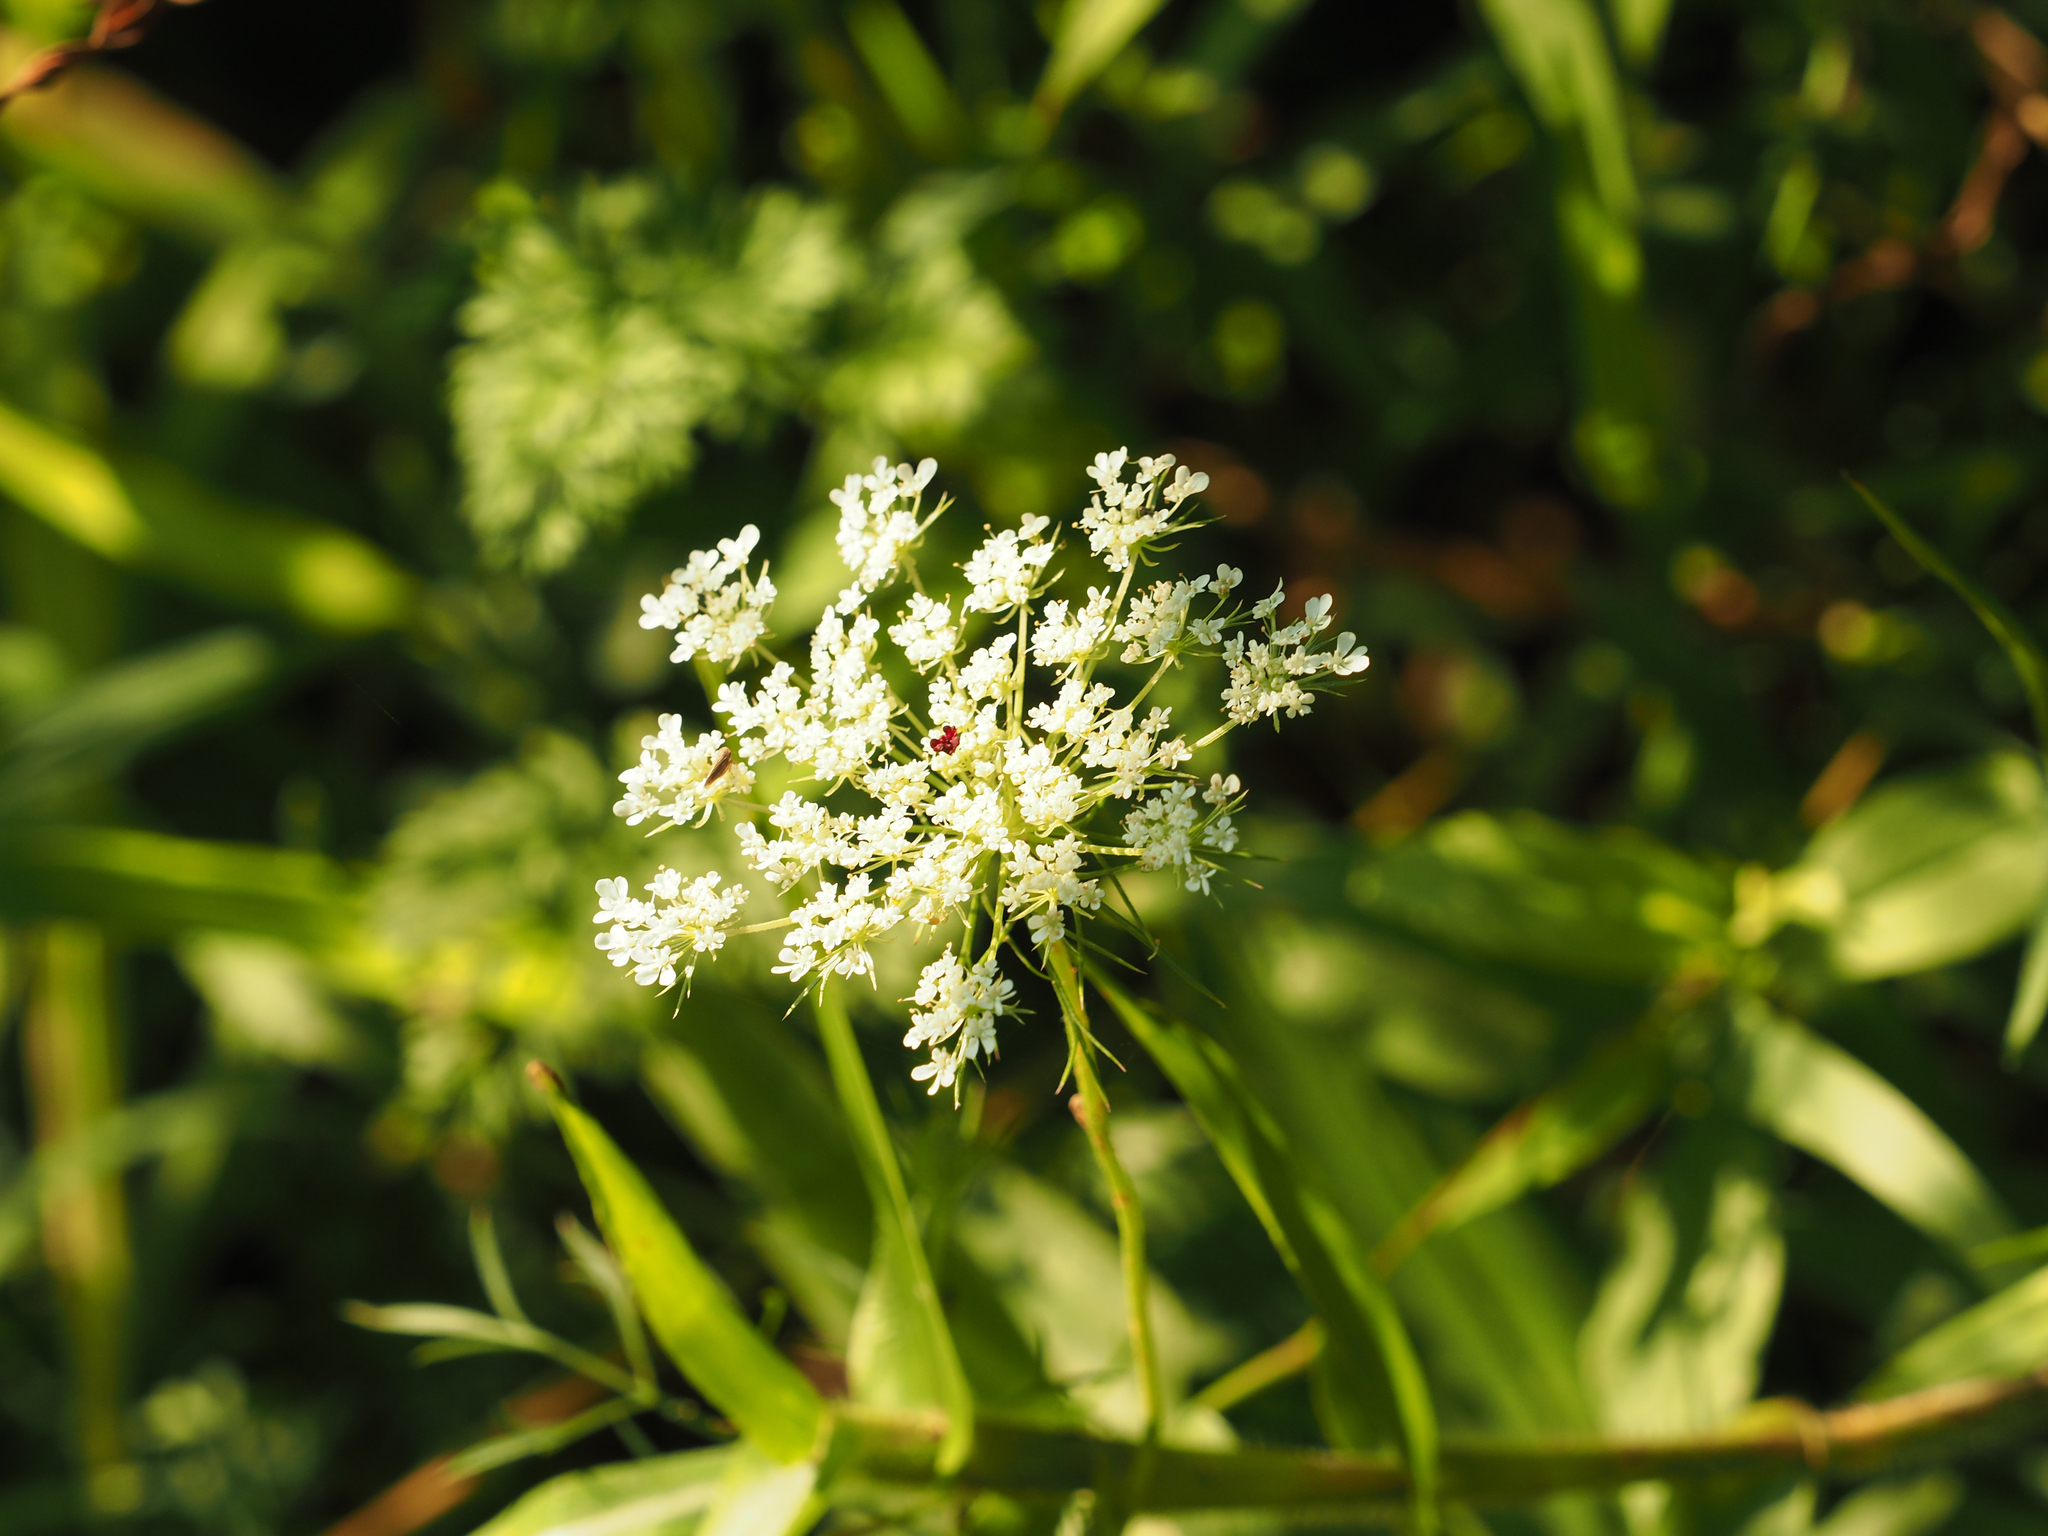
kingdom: Plantae
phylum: Tracheophyta
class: Magnoliopsida
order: Apiales
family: Apiaceae
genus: Daucus
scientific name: Daucus carota
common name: Wild carrot
